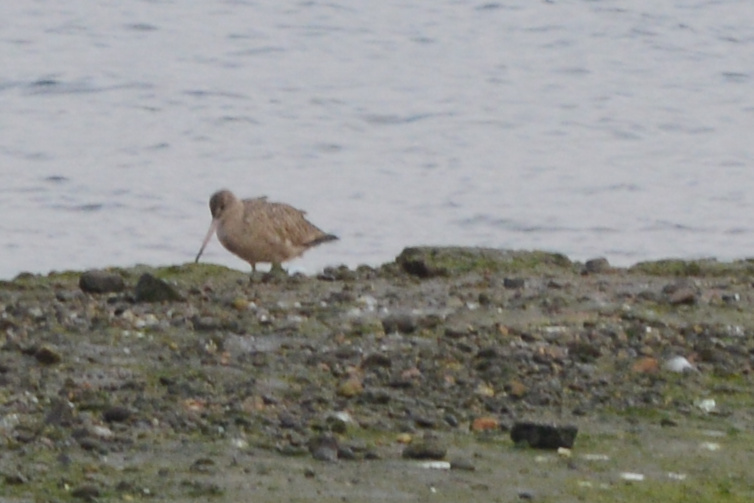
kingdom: Animalia
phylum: Chordata
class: Aves
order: Charadriiformes
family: Scolopacidae
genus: Limosa
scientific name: Limosa fedoa
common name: Marbled godwit
